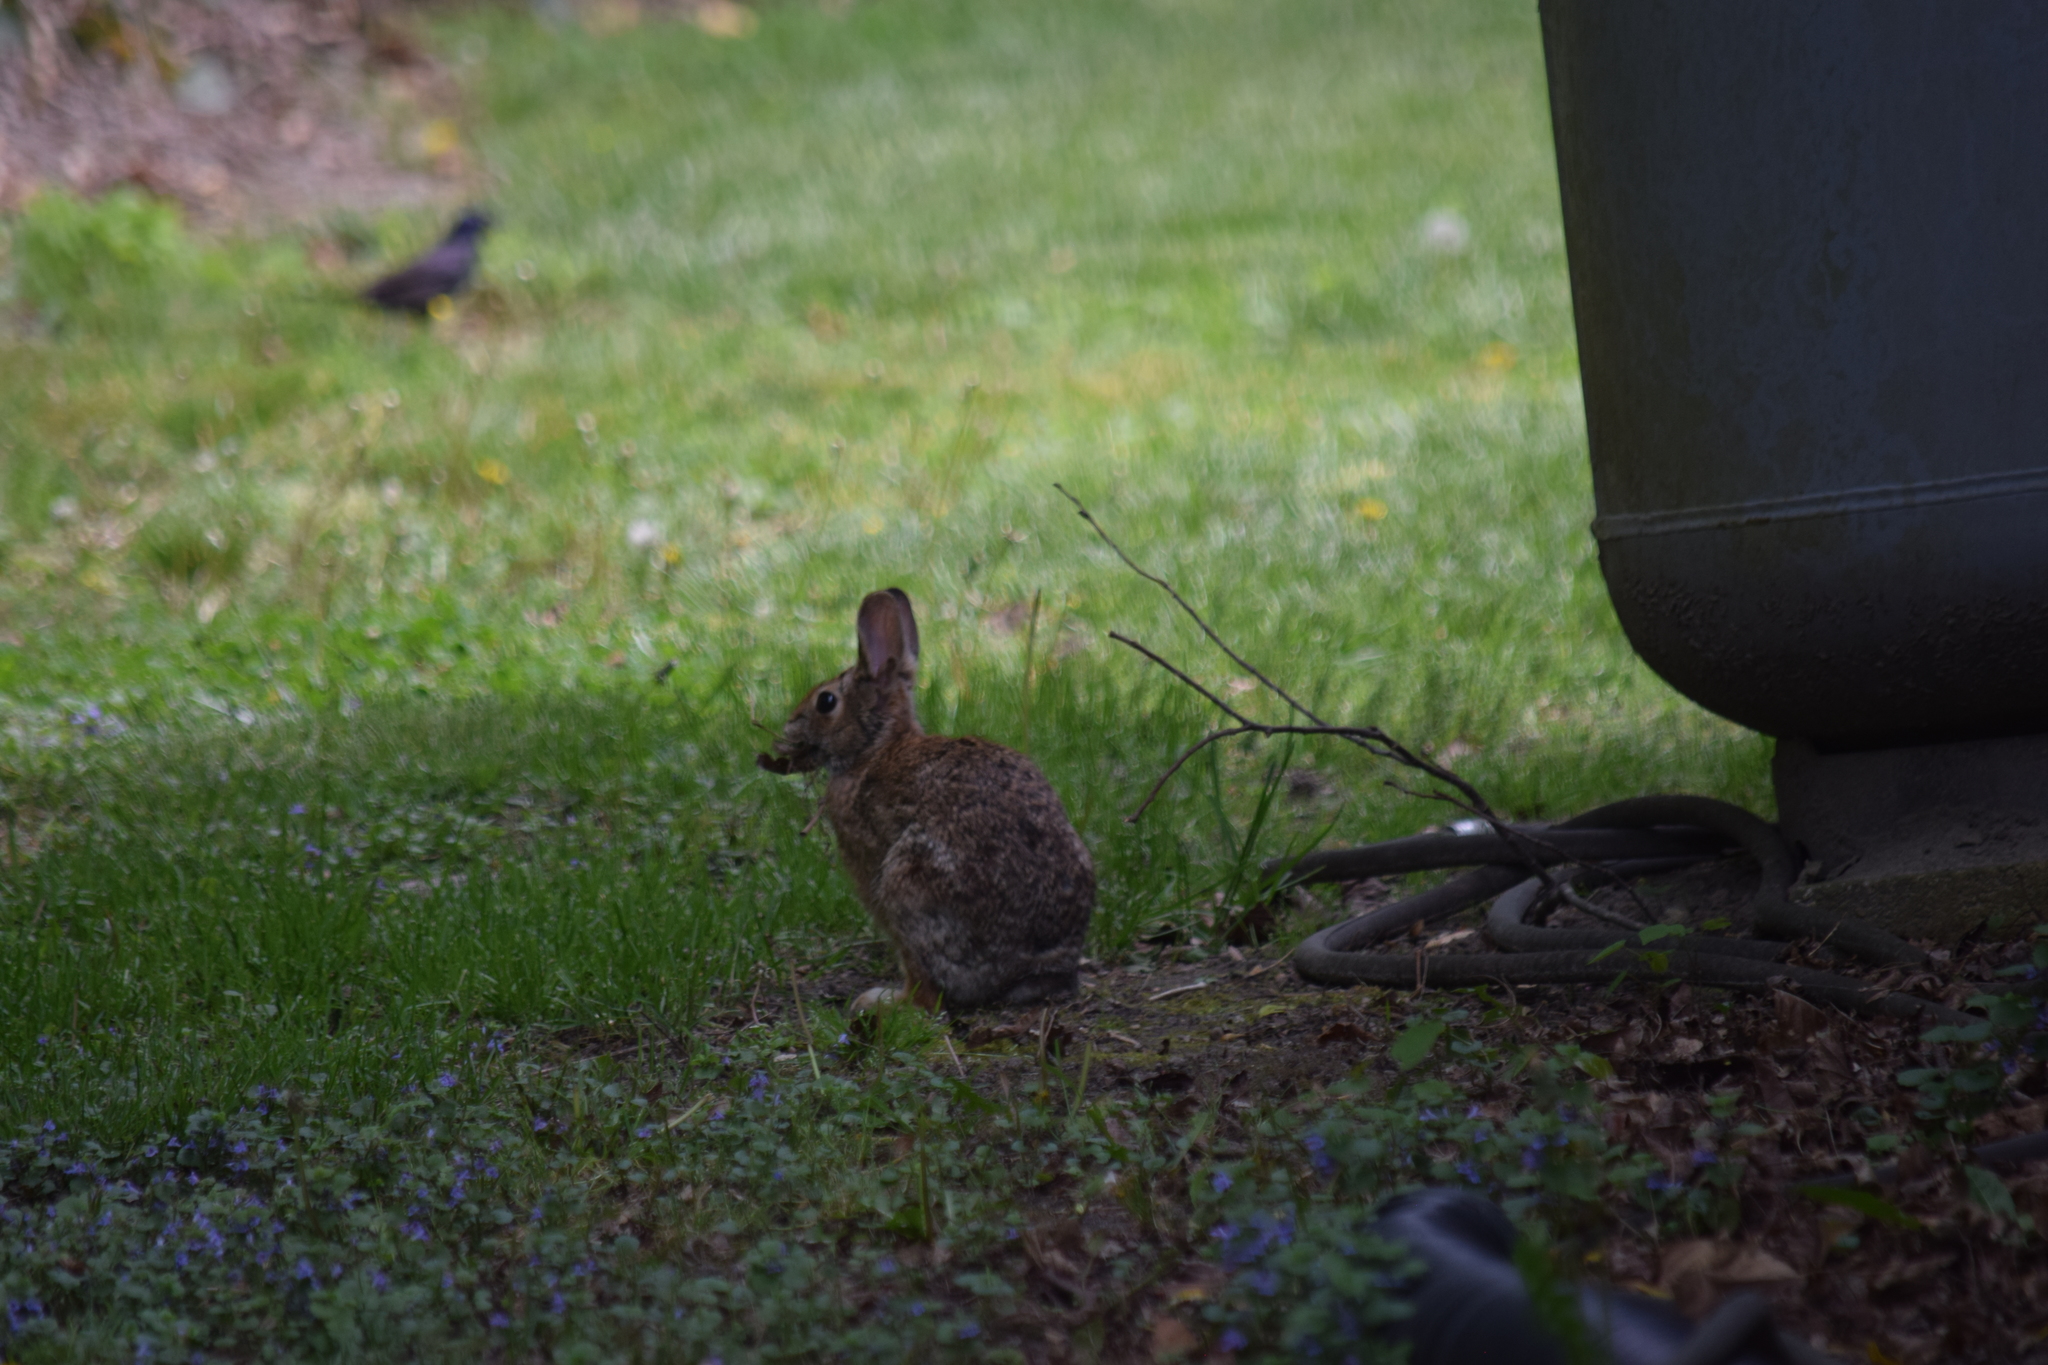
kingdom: Animalia
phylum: Chordata
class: Mammalia
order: Lagomorpha
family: Leporidae
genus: Sylvilagus
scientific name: Sylvilagus floridanus
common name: Eastern cottontail
